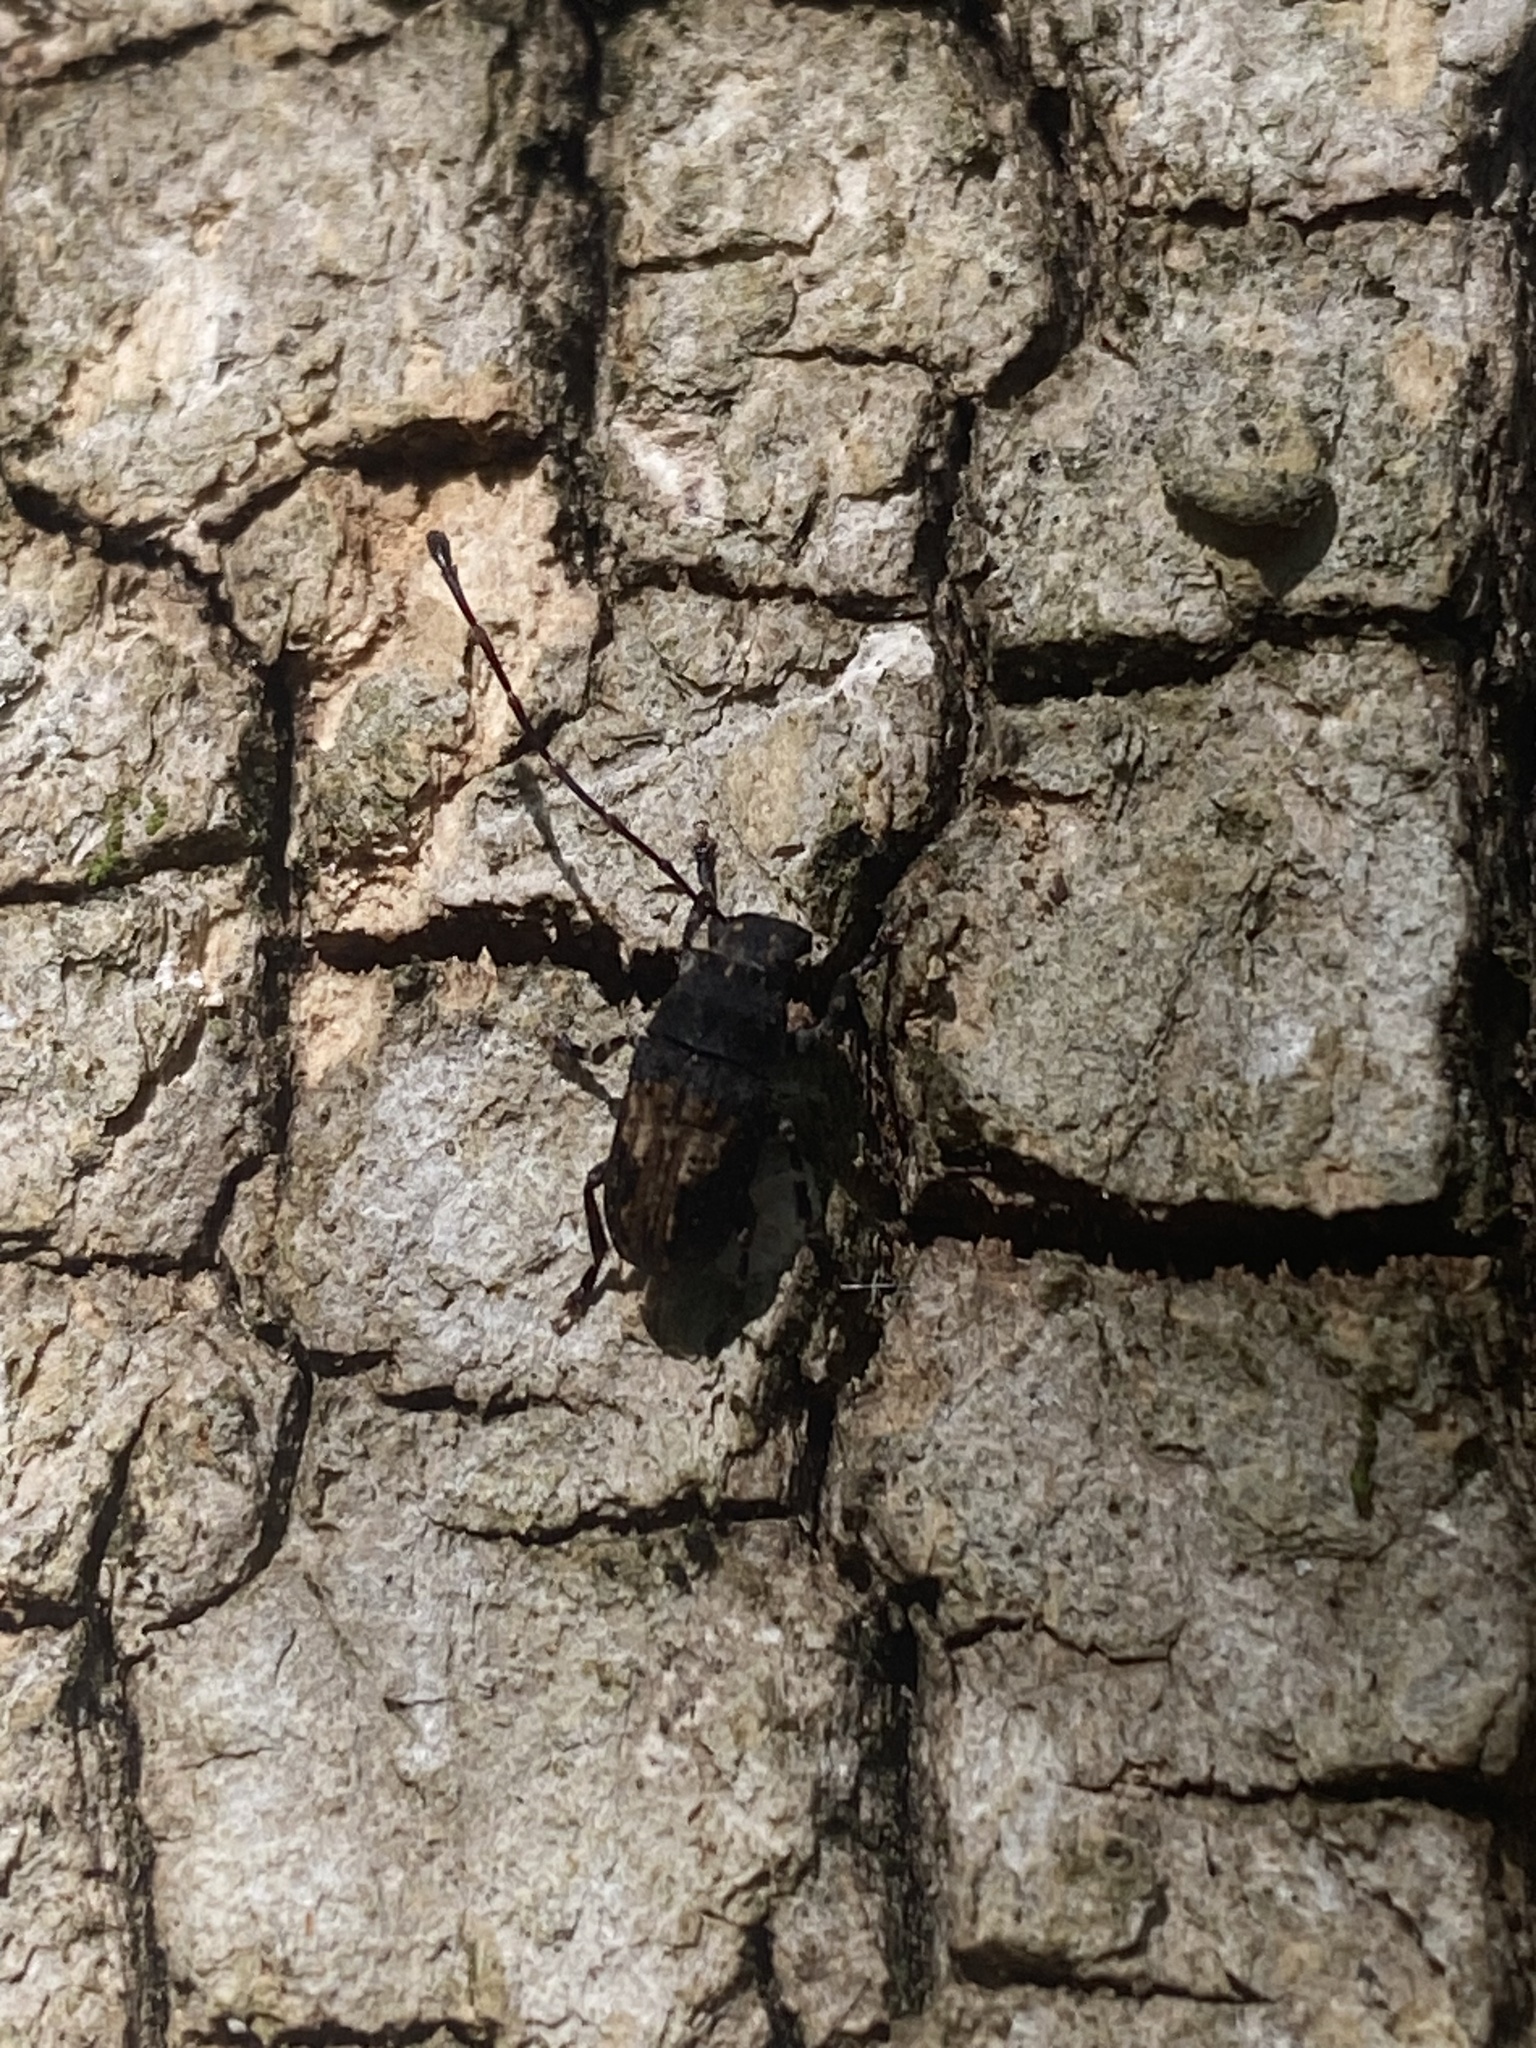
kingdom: Animalia
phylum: Arthropoda
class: Insecta
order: Coleoptera
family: Anthribidae
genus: Piesocorynus
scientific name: Piesocorynus plagifer
